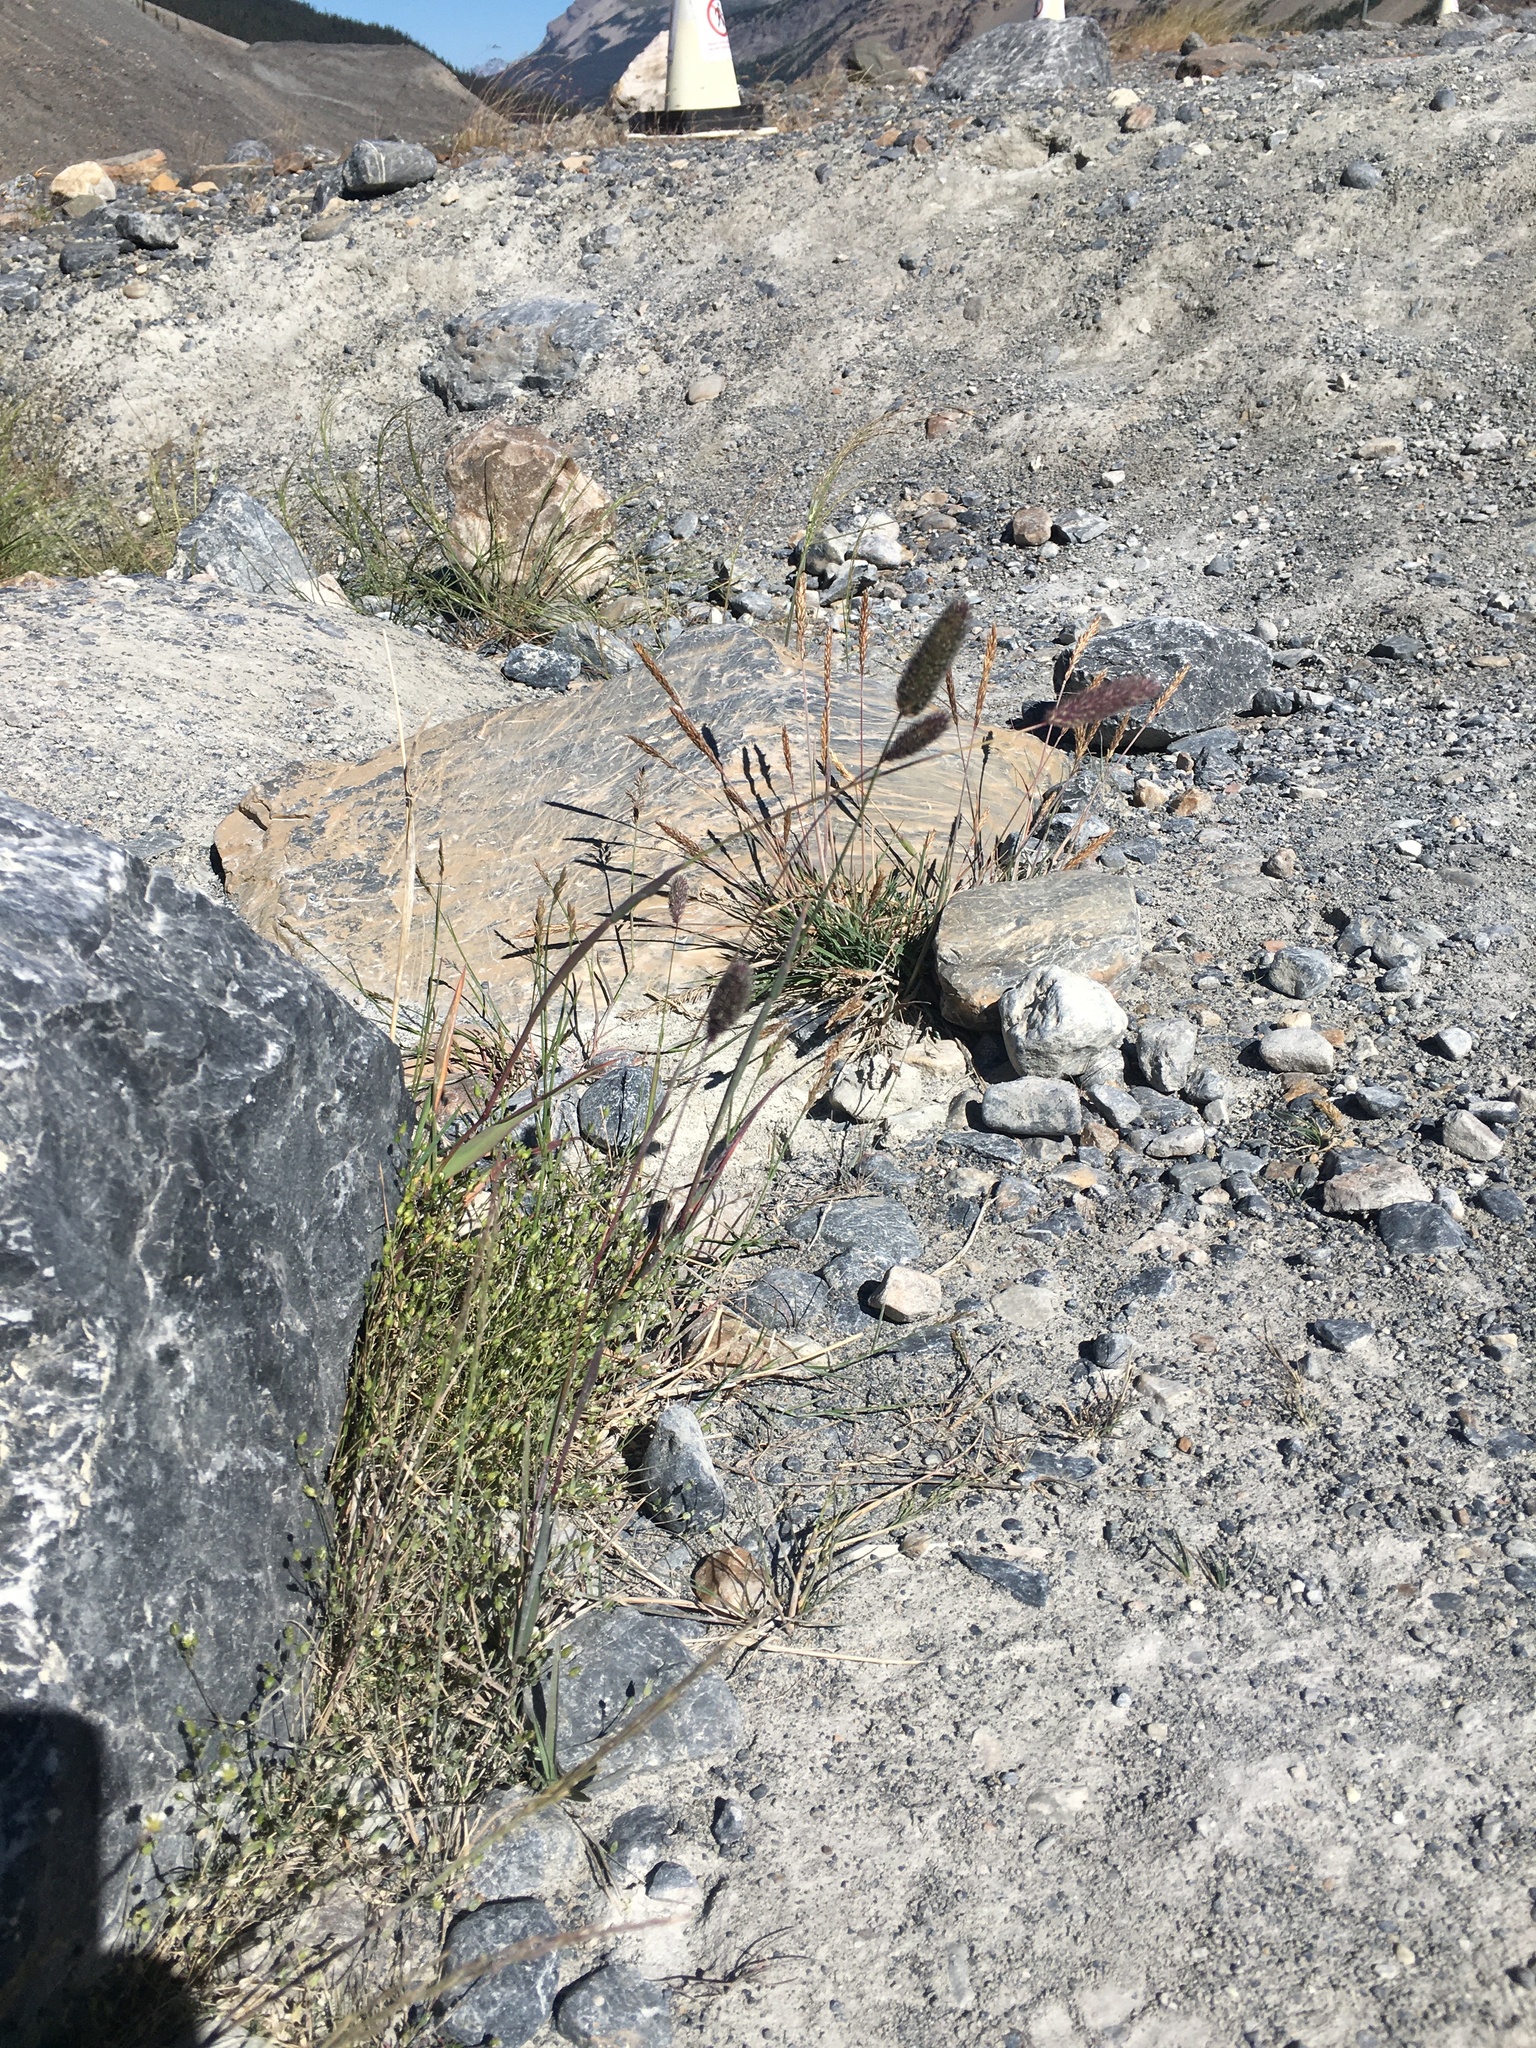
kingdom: Plantae
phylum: Tracheophyta
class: Liliopsida
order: Poales
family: Poaceae
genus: Phleum
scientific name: Phleum alpinum
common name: Alpine cat's-tail
